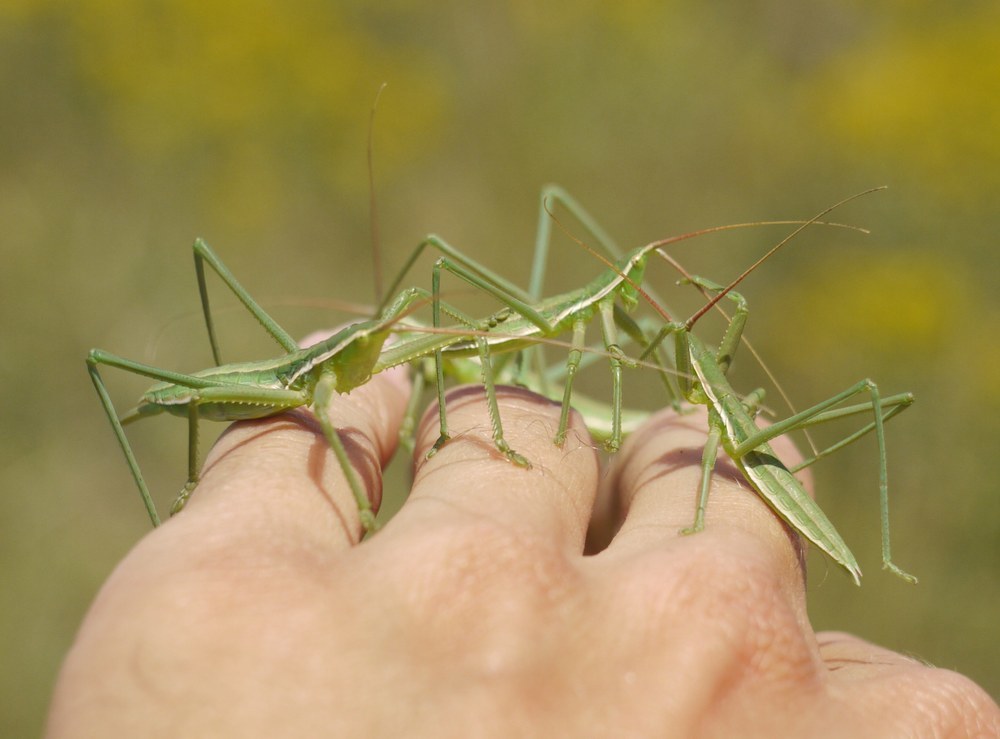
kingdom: Animalia
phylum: Arthropoda
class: Insecta
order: Orthoptera
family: Tettigoniidae
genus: Saga
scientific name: Saga pedo
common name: Common predatory bush-cricket
